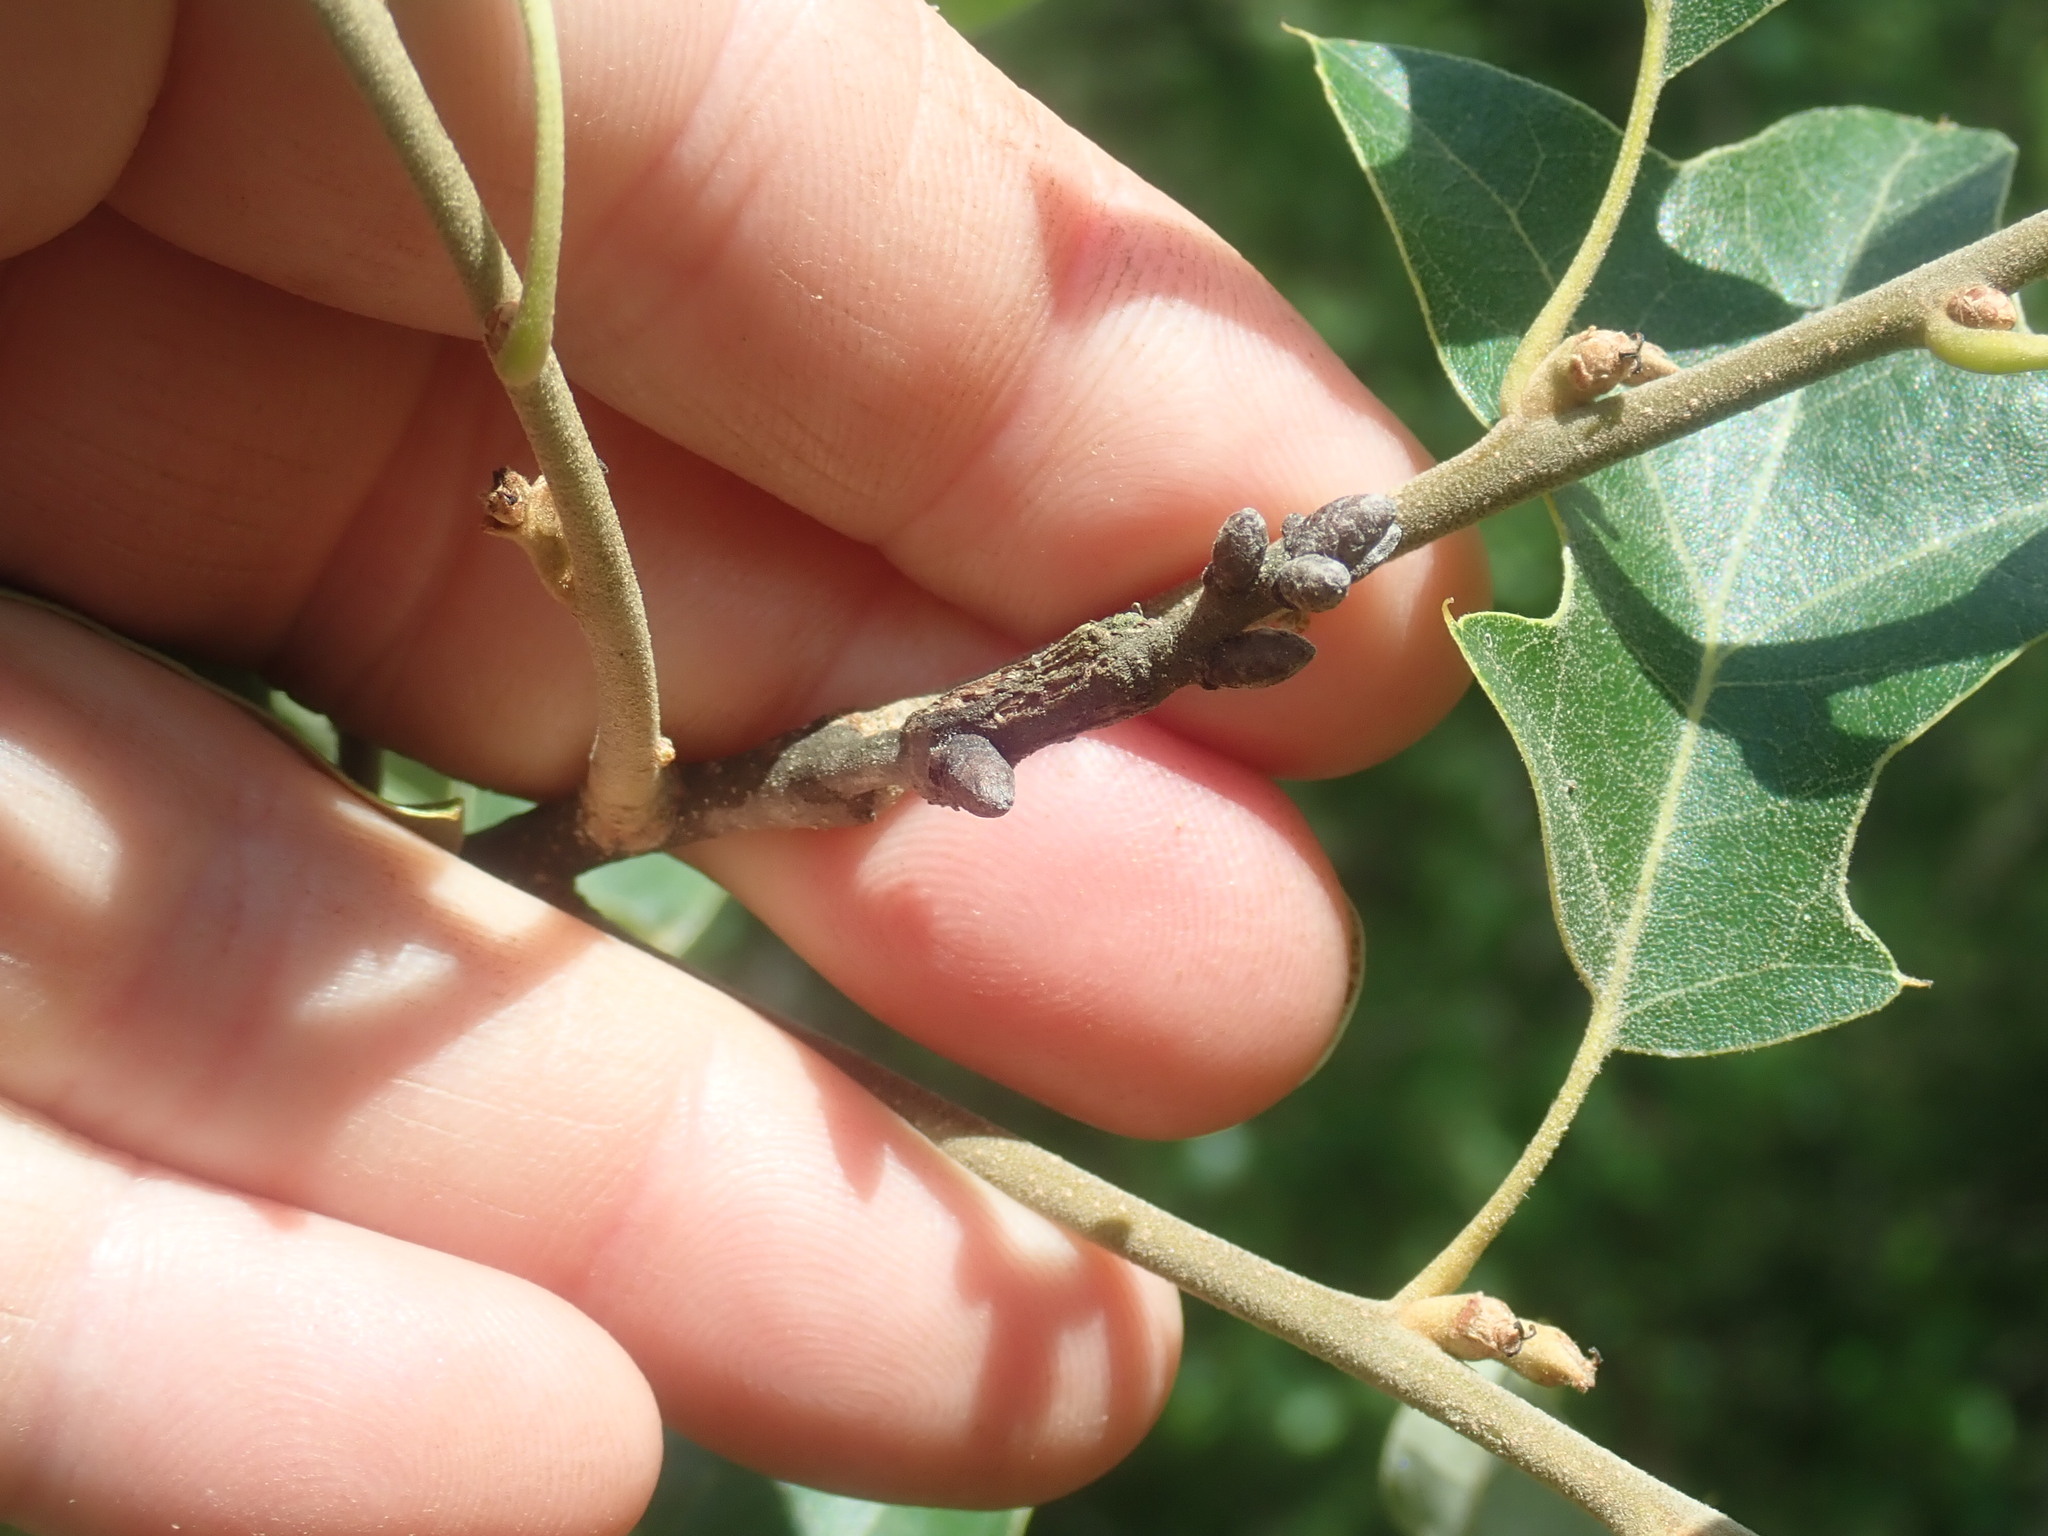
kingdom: Plantae
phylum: Tracheophyta
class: Magnoliopsida
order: Fagales
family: Fagaceae
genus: Quercus
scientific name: Quercus ilicifolia
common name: Bear oak
